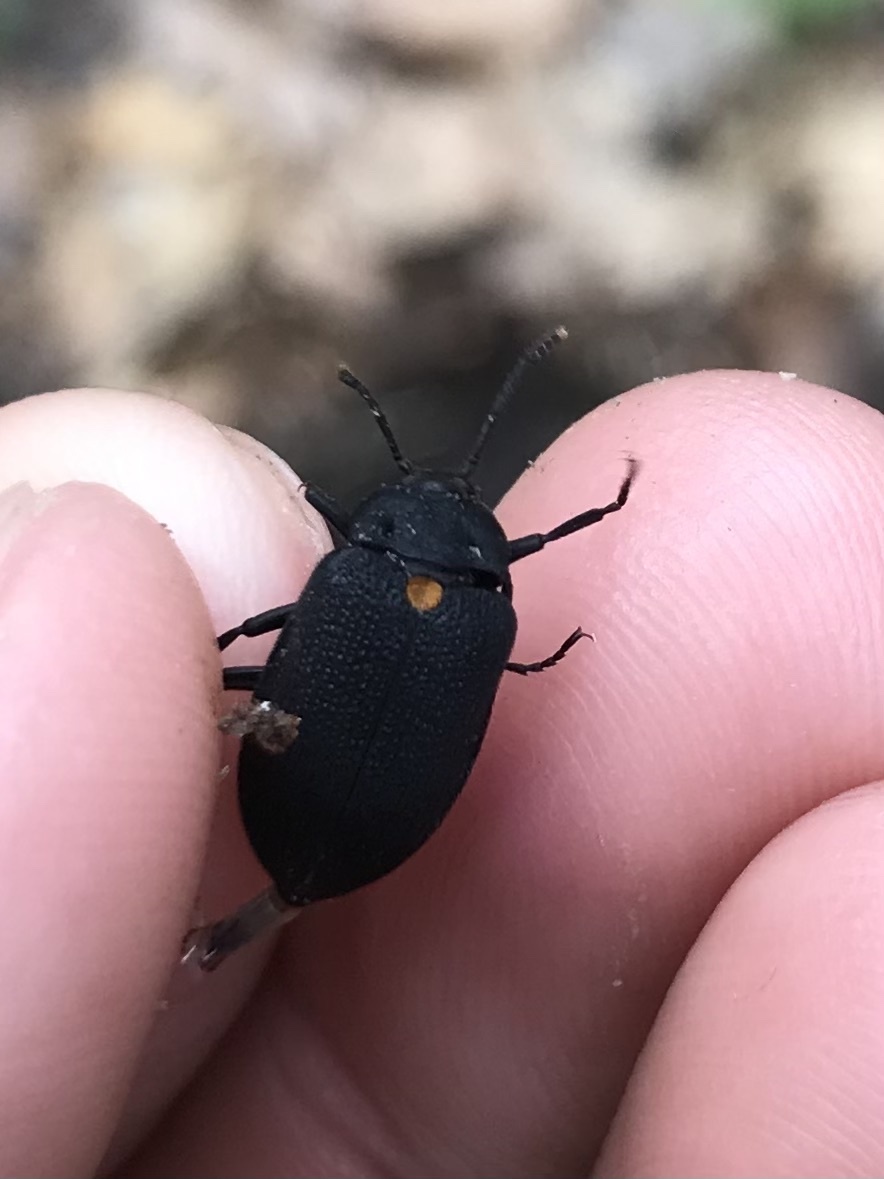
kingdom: Animalia
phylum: Arthropoda
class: Insecta
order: Coleoptera
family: Tetratomidae
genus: Penthe
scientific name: Penthe obliquata
